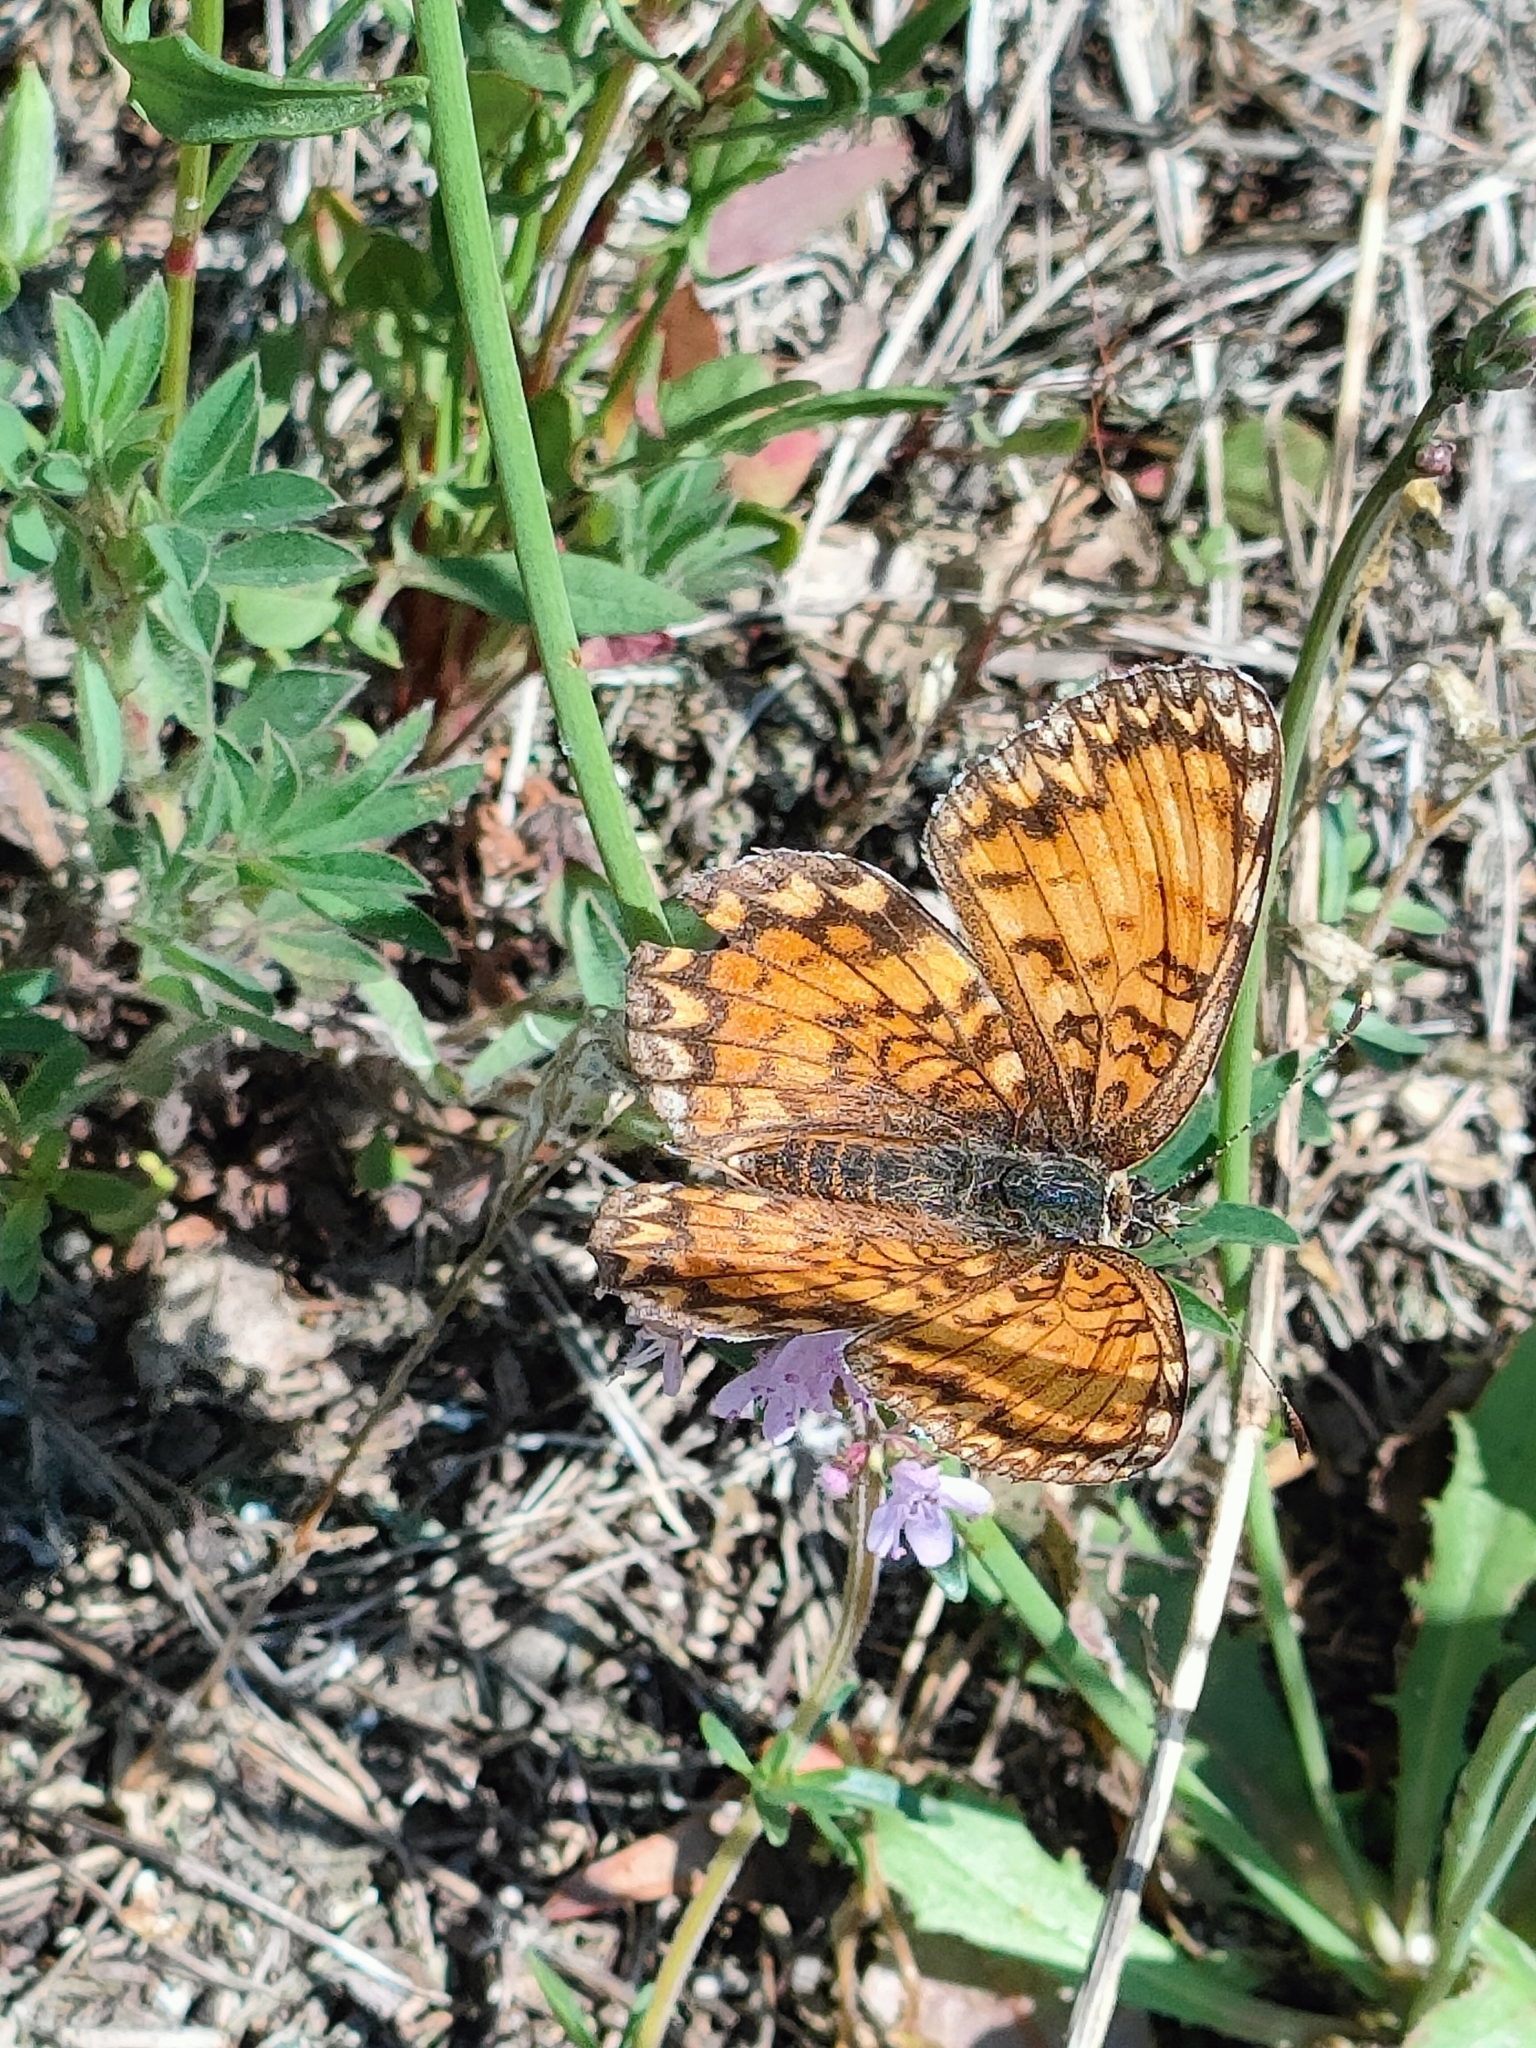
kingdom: Animalia
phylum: Arthropoda
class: Insecta
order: Lepidoptera
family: Nymphalidae
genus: Melitaea
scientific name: Melitaea phoebe
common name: Knapweed fritillary
